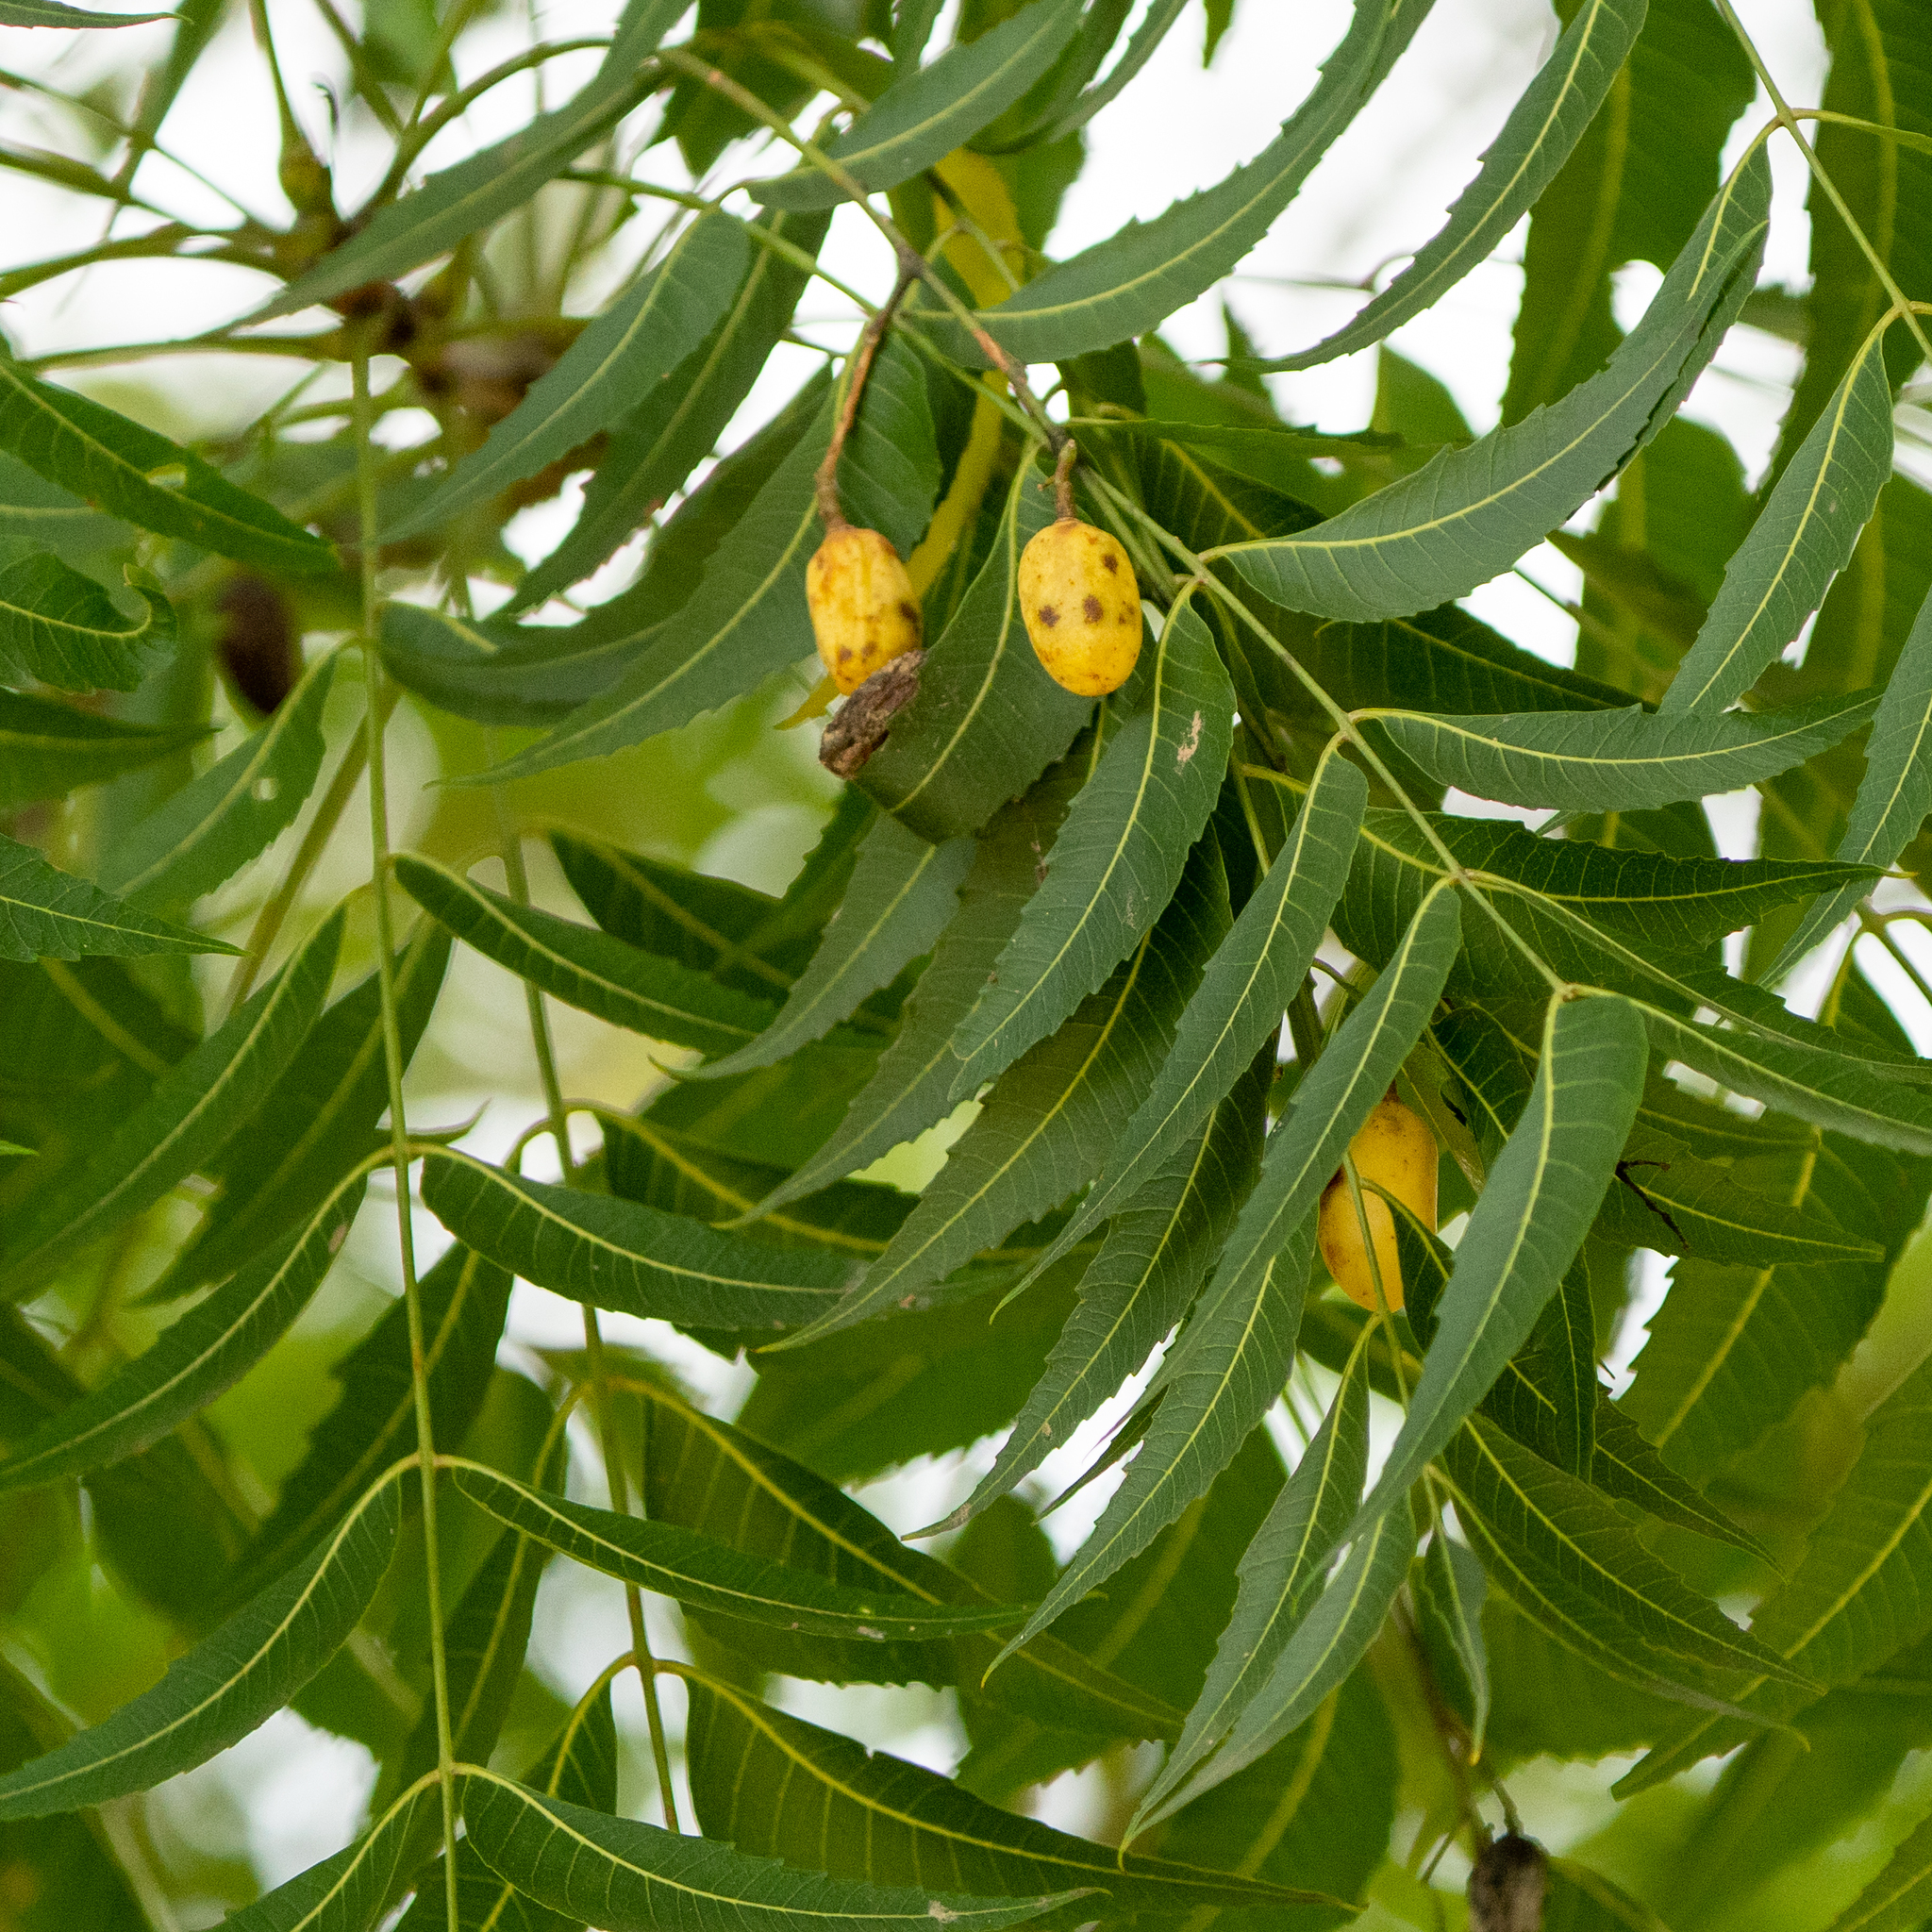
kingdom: Plantae
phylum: Tracheophyta
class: Magnoliopsida
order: Sapindales
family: Meliaceae
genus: Azadirachta
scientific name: Azadirachta indica
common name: Neem
